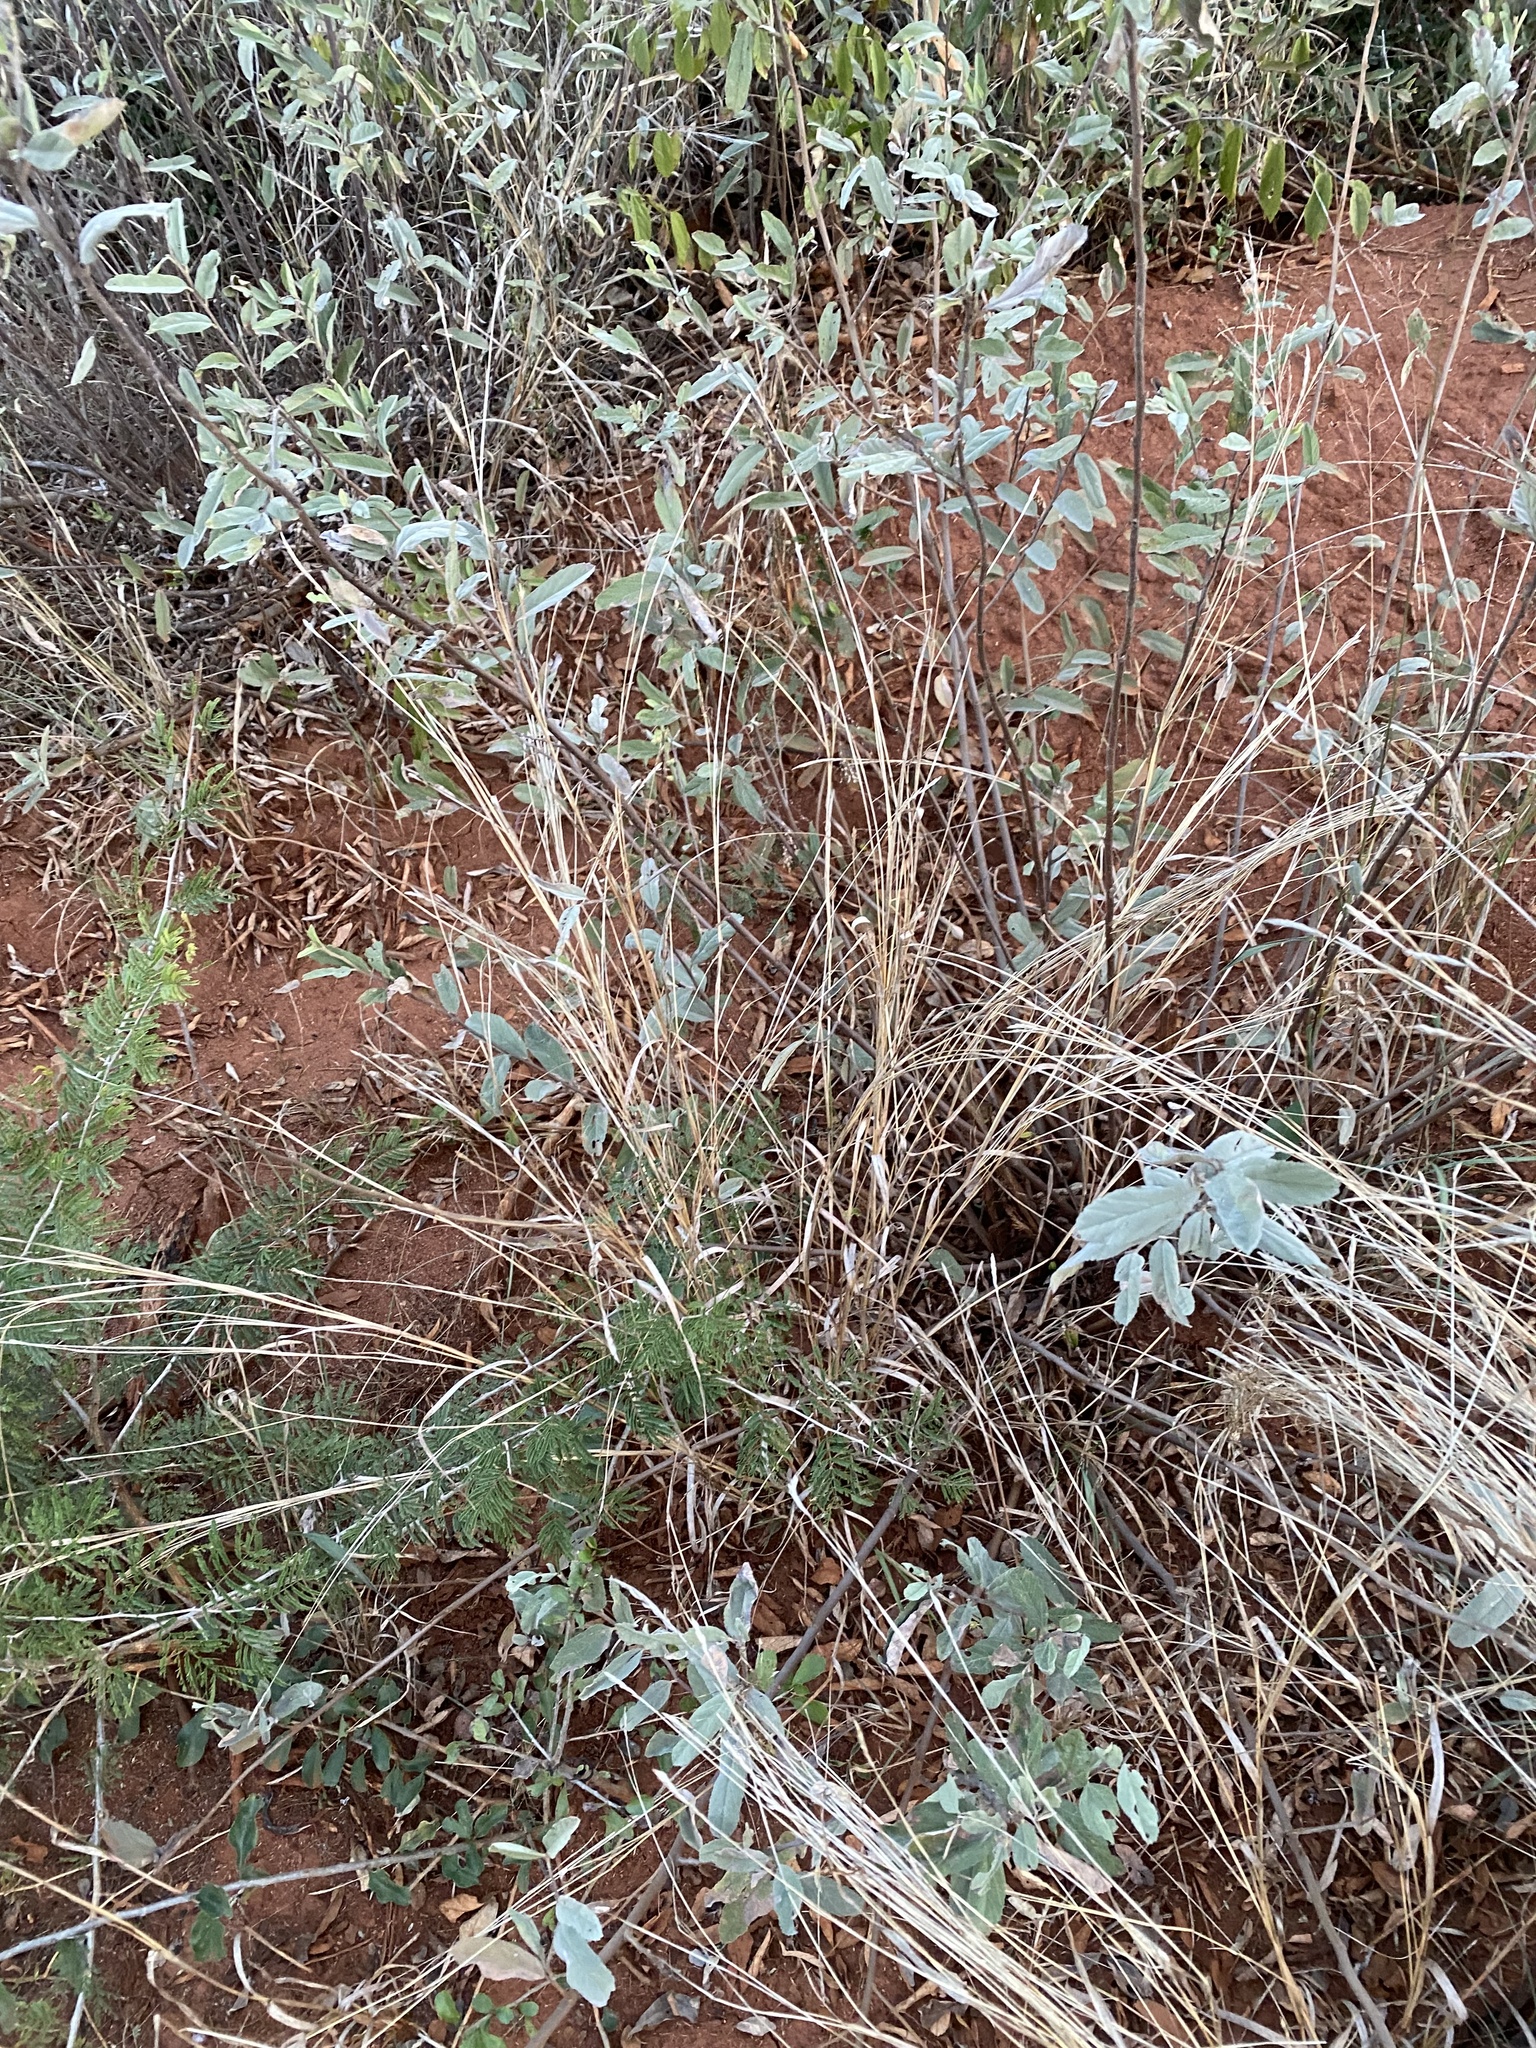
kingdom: Plantae
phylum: Tracheophyta
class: Magnoliopsida
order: Malvales
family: Malvaceae
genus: Grewia
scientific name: Grewia flava
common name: Brandy bush
